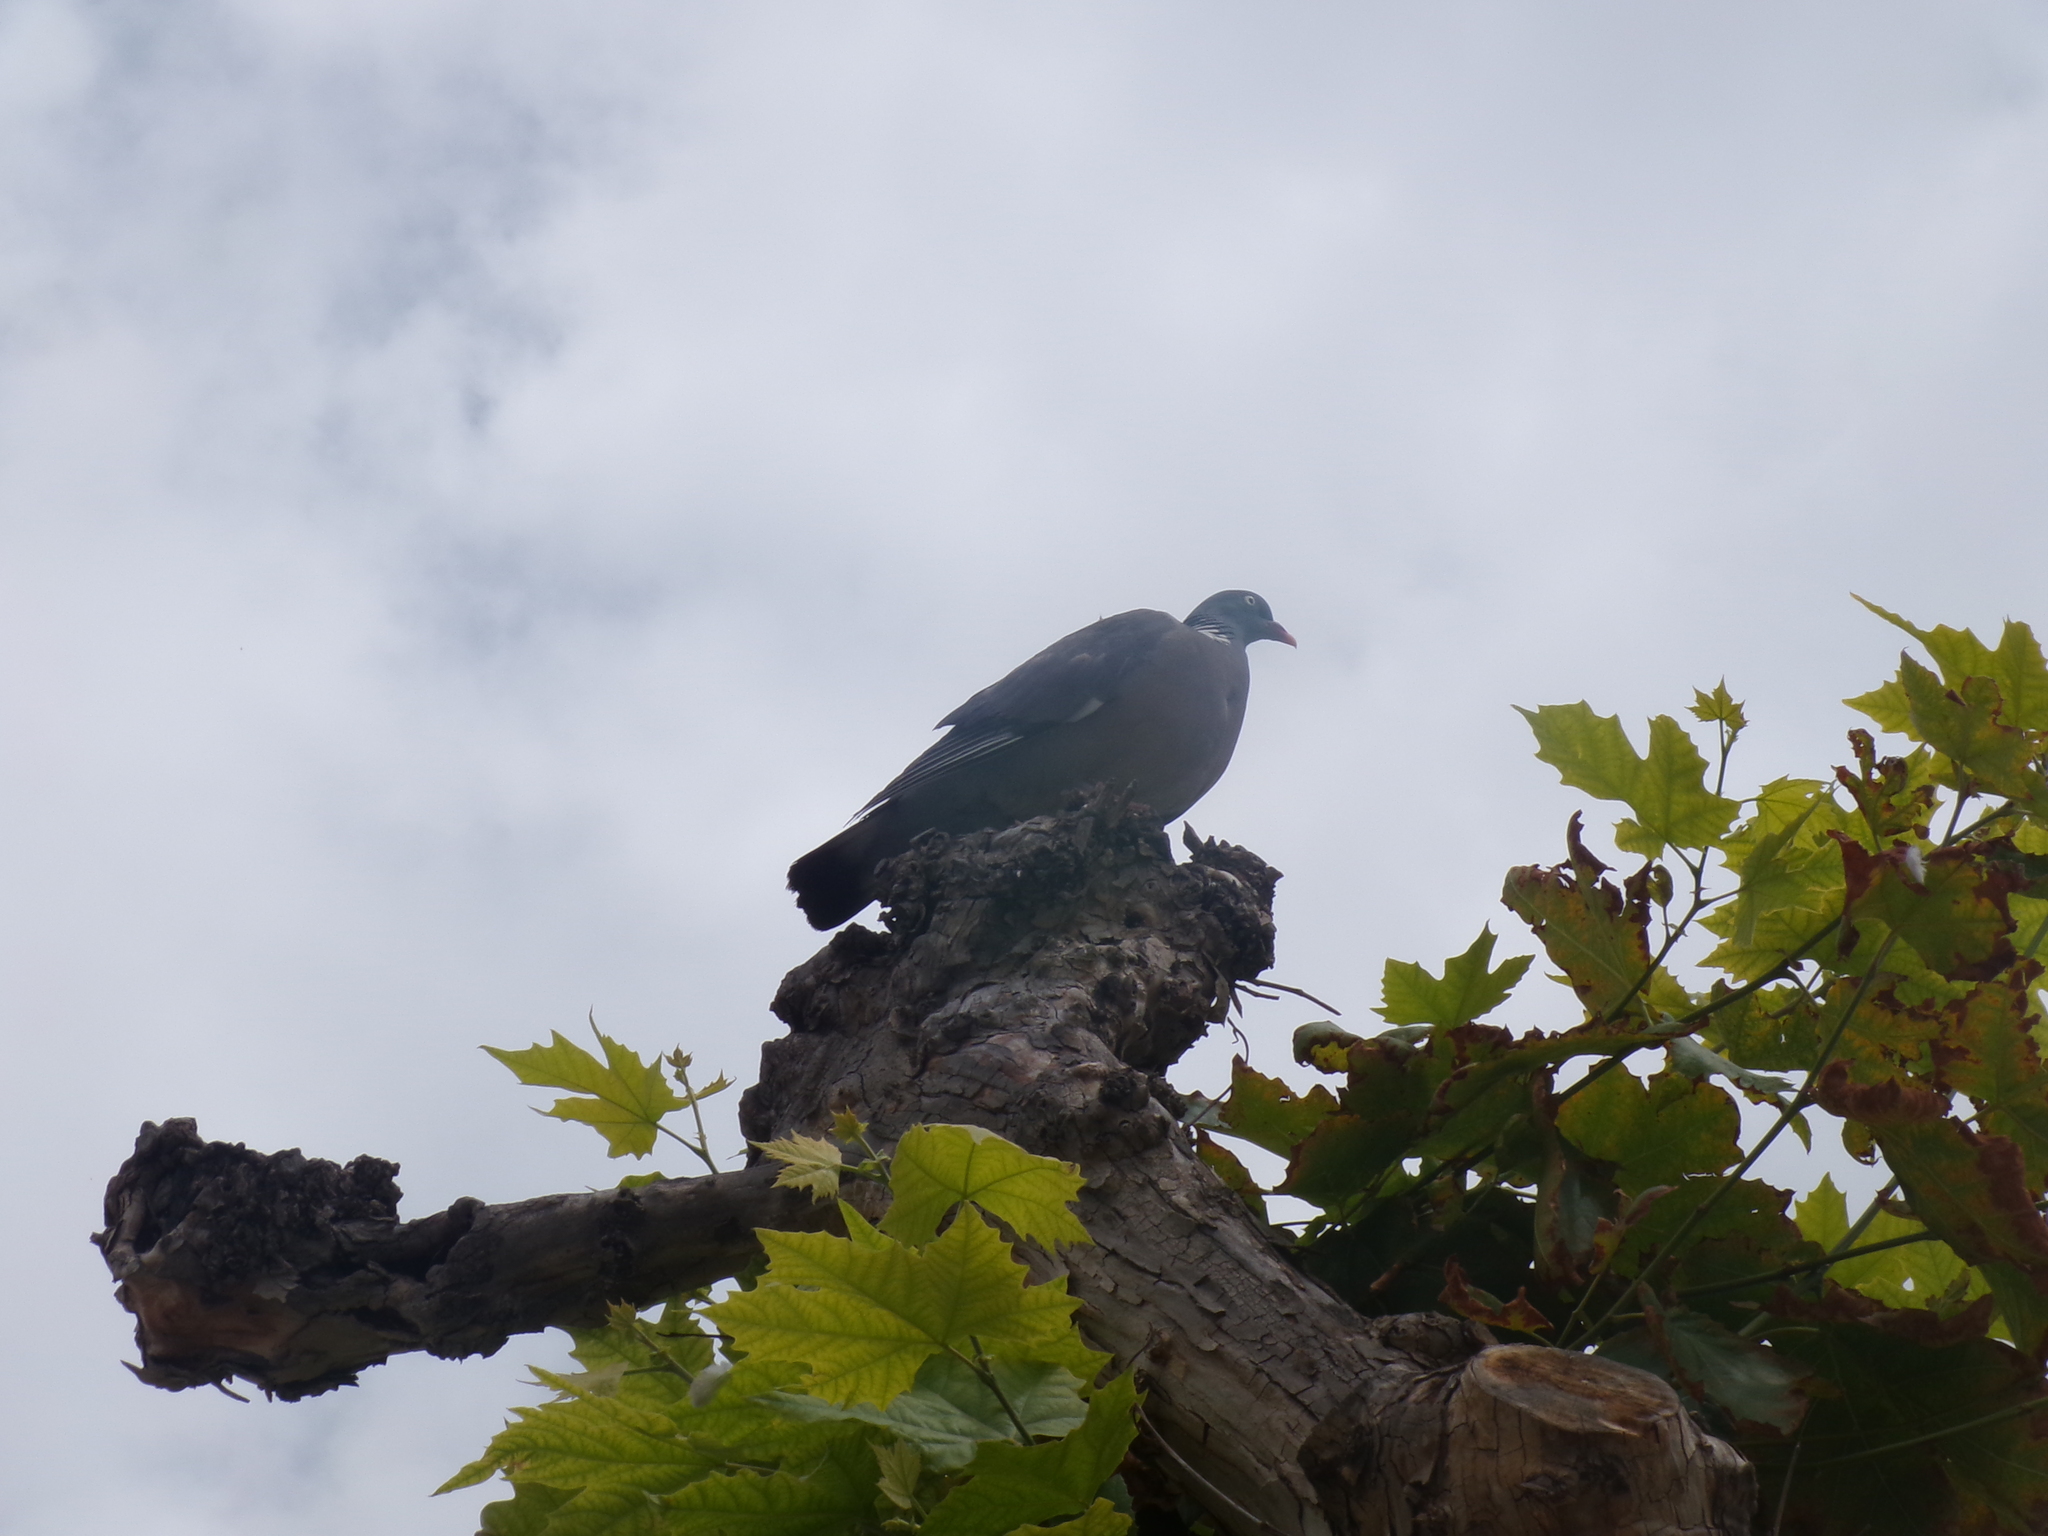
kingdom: Animalia
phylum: Chordata
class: Aves
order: Columbiformes
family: Columbidae
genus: Columba
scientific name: Columba palumbus
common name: Common wood pigeon
